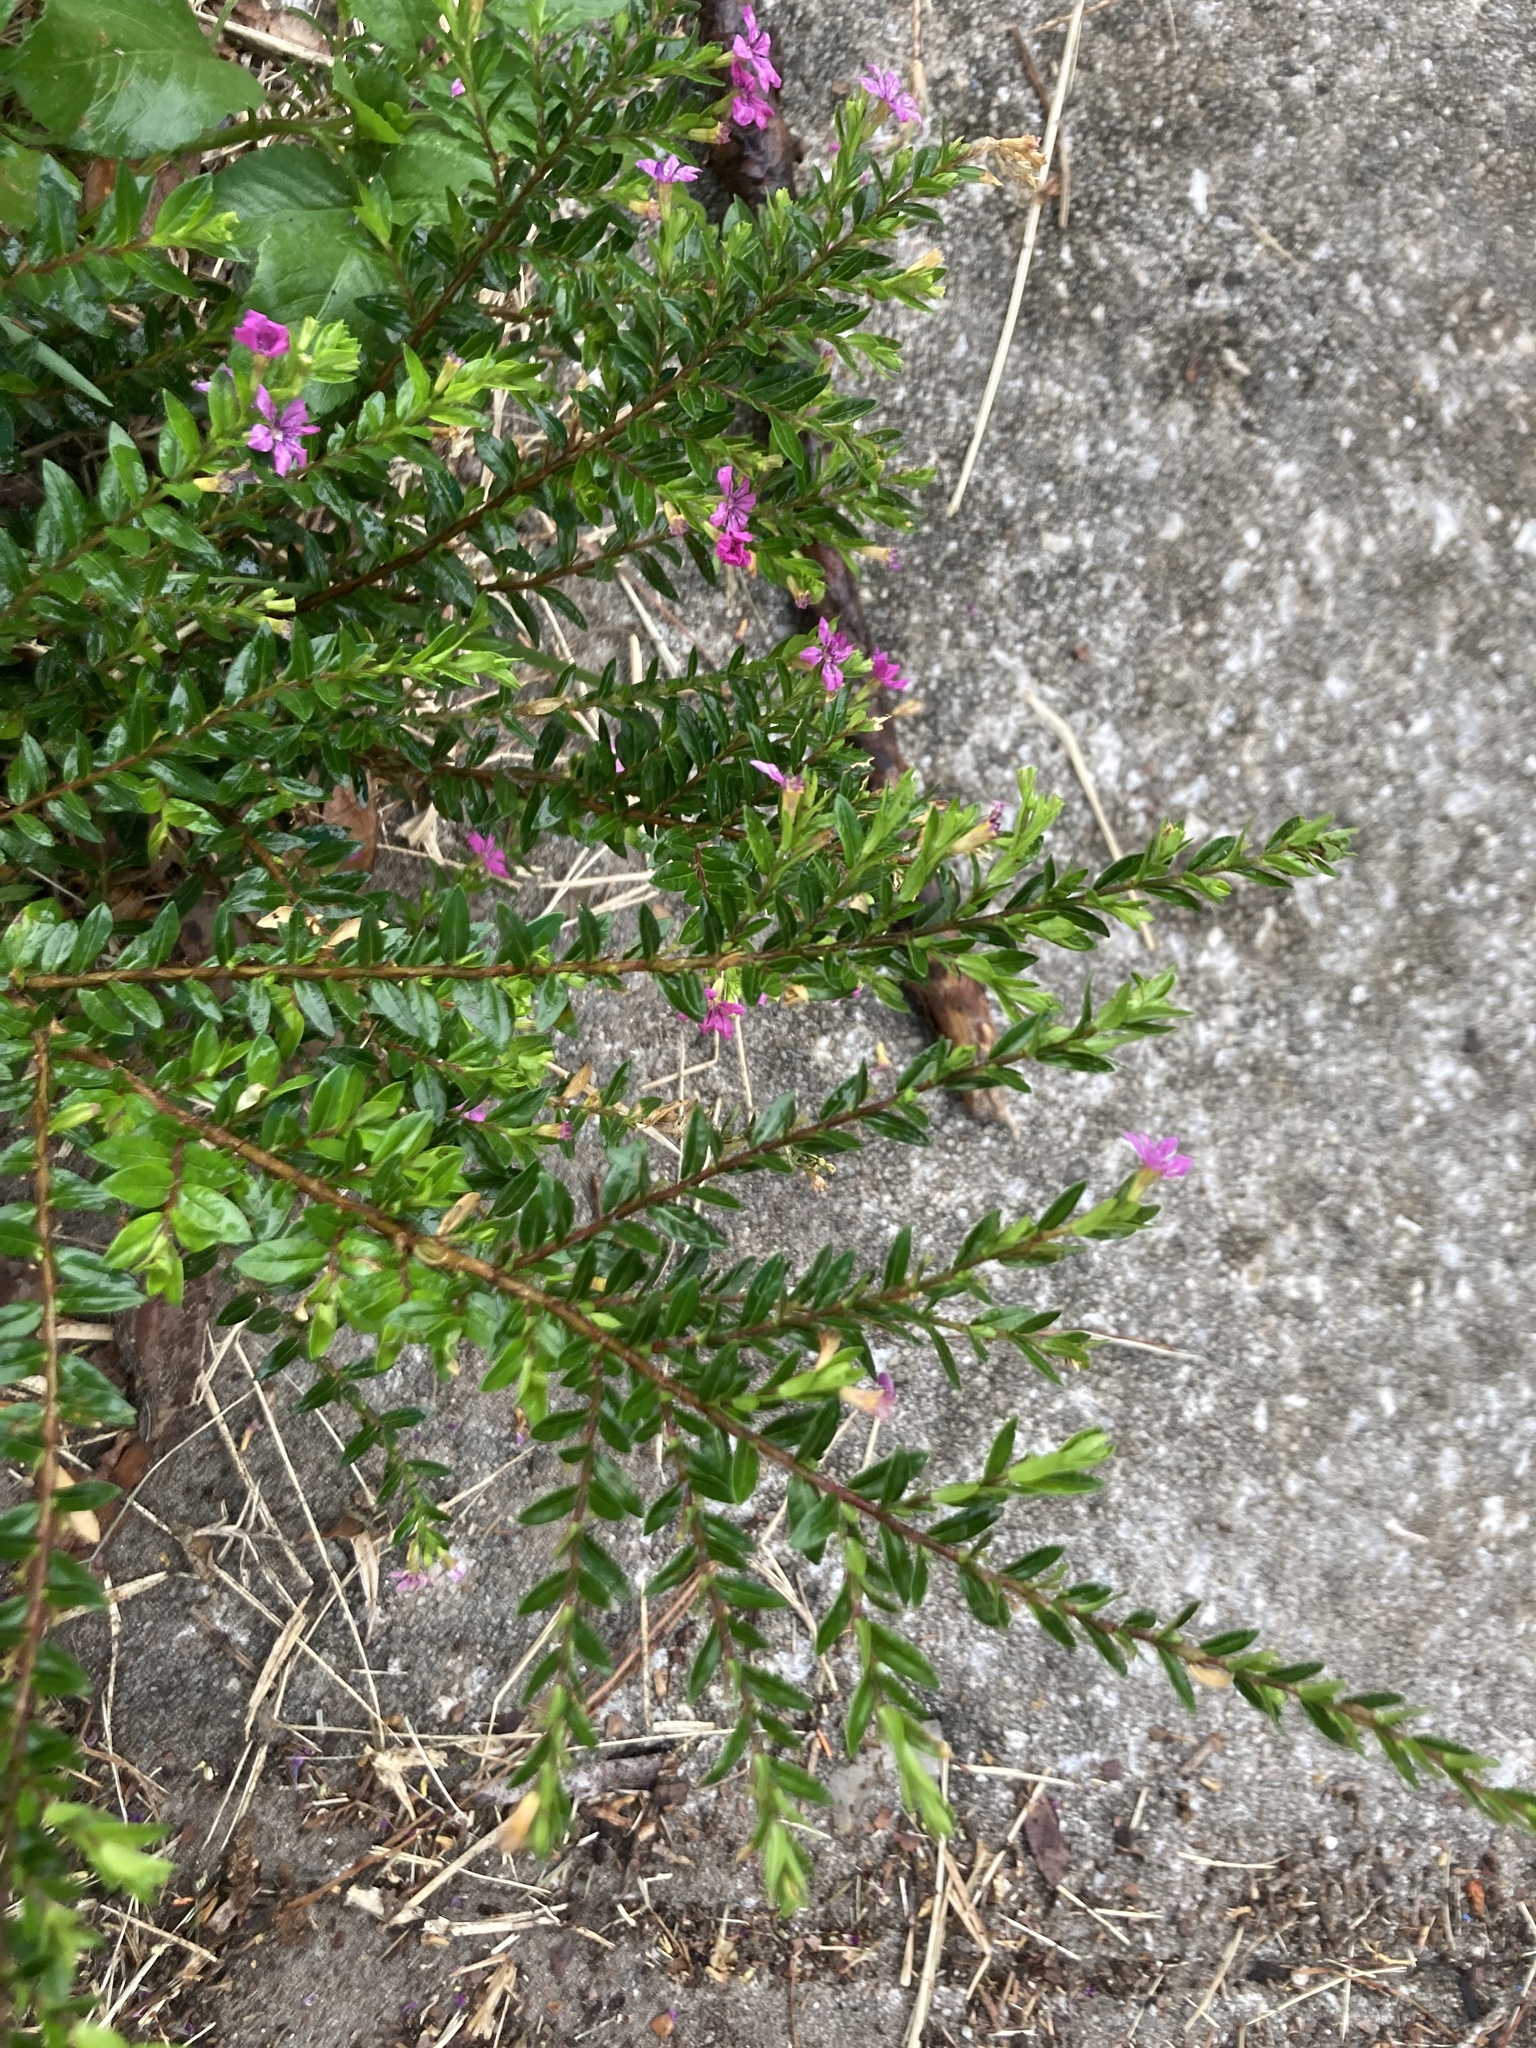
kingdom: Plantae
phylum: Tracheophyta
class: Magnoliopsida
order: Myrtales
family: Lythraceae
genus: Cuphea
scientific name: Cuphea hyssopifolia
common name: False heather
